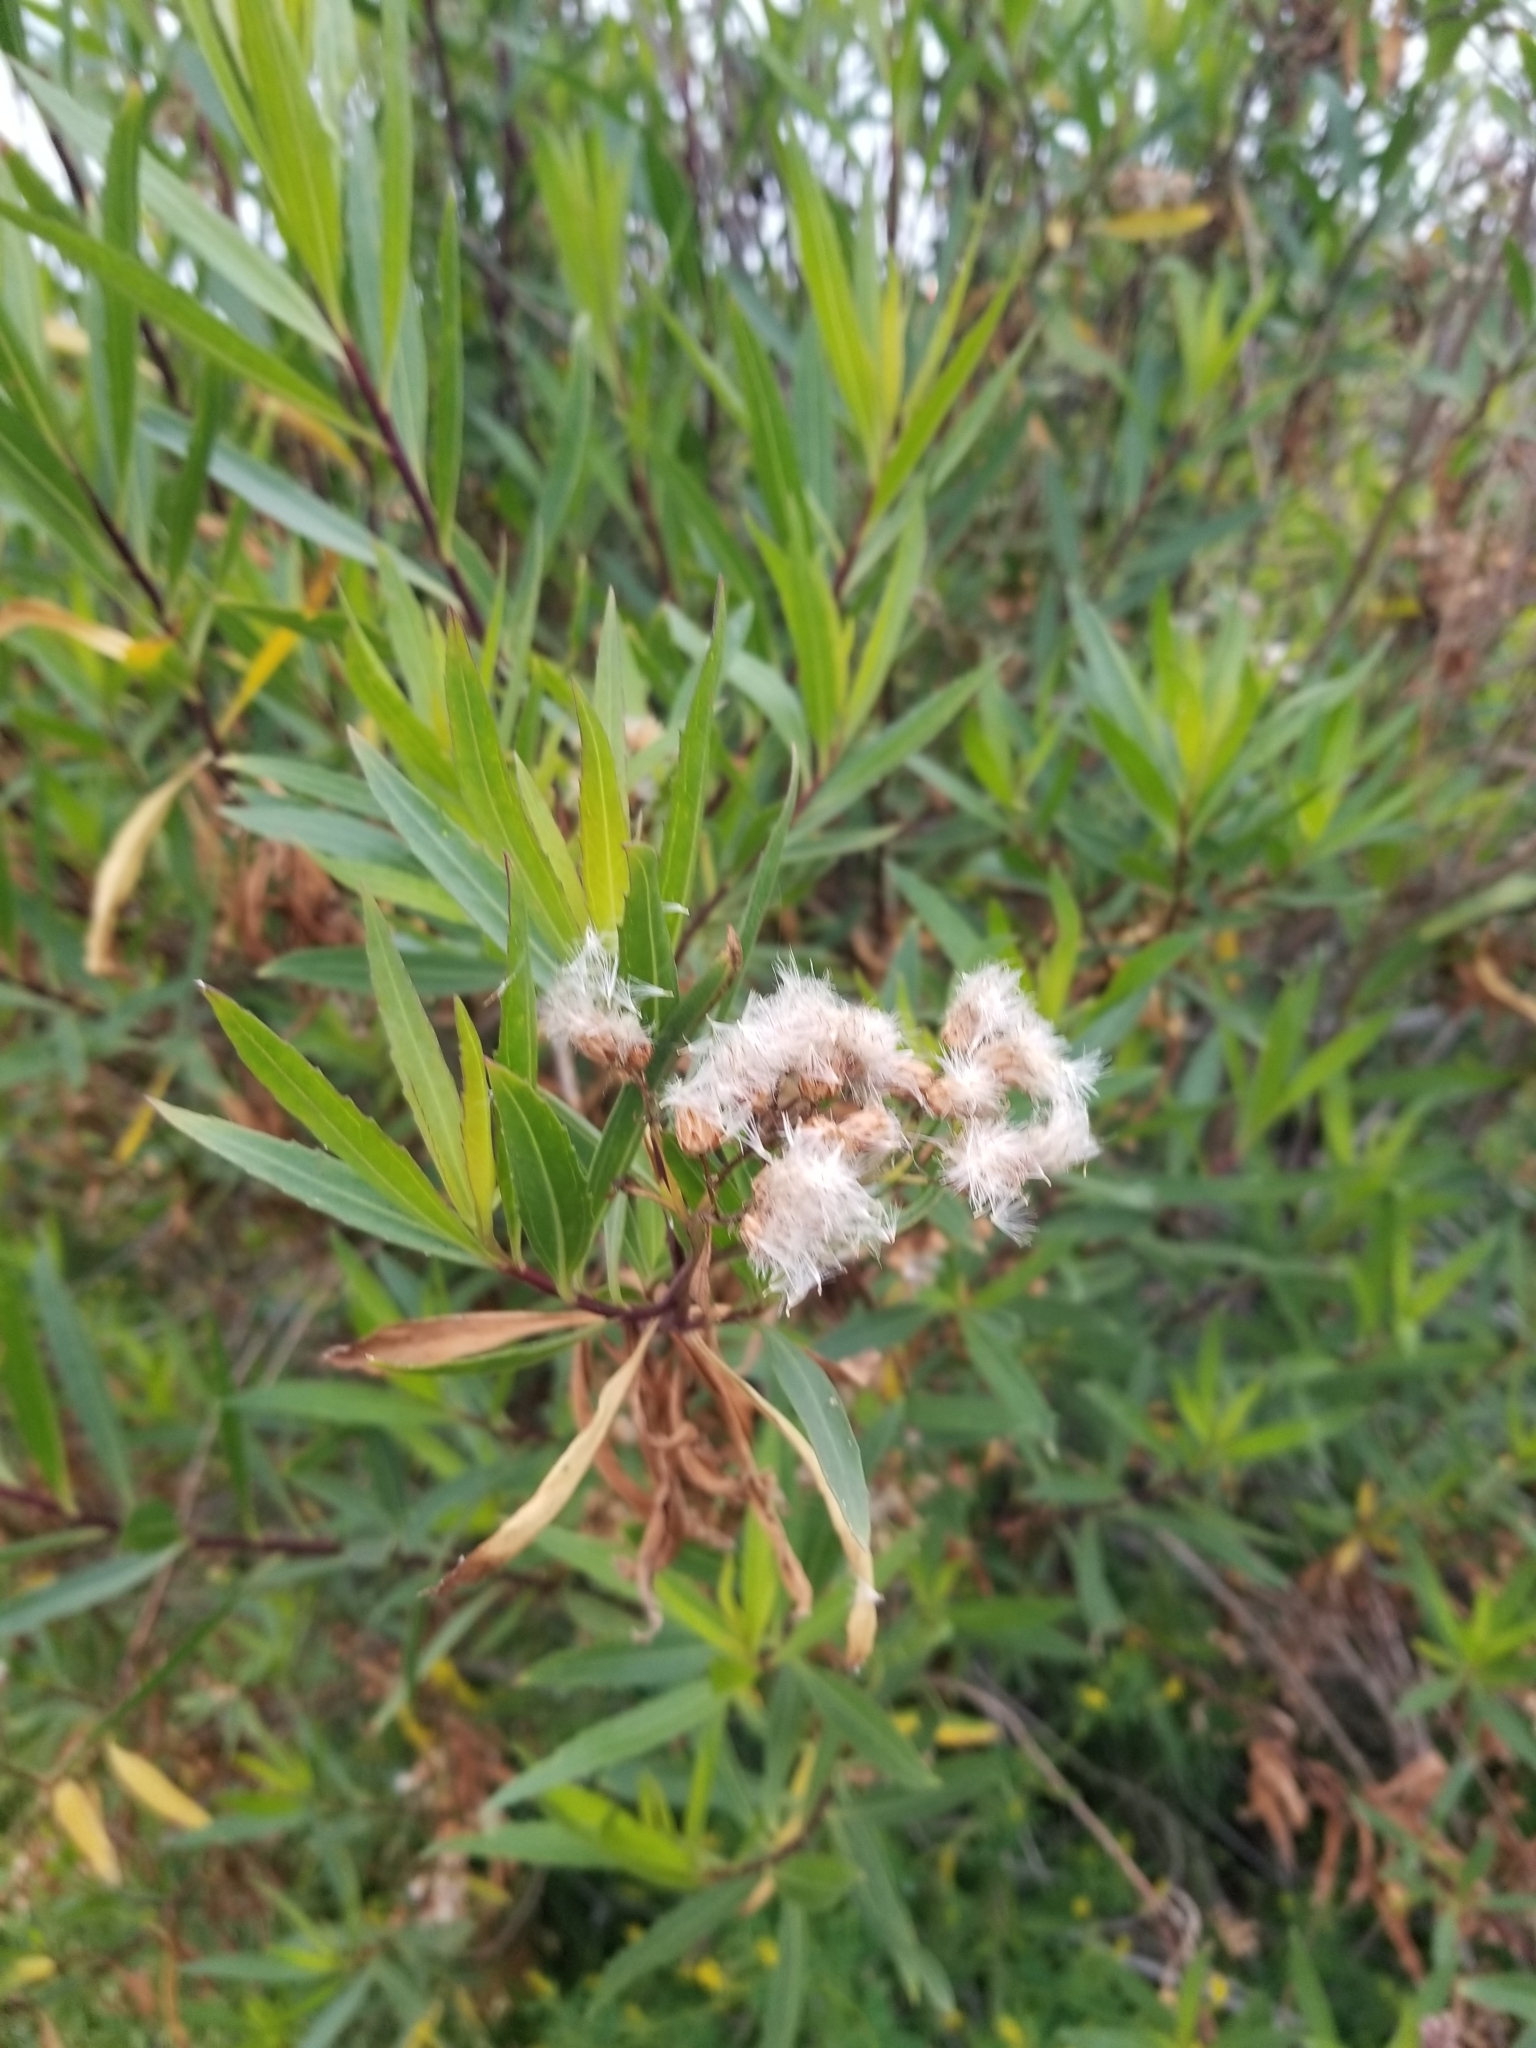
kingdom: Plantae
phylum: Tracheophyta
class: Magnoliopsida
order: Asterales
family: Asteraceae
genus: Baccharis
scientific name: Baccharis salicifolia
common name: Sticky baccharis
